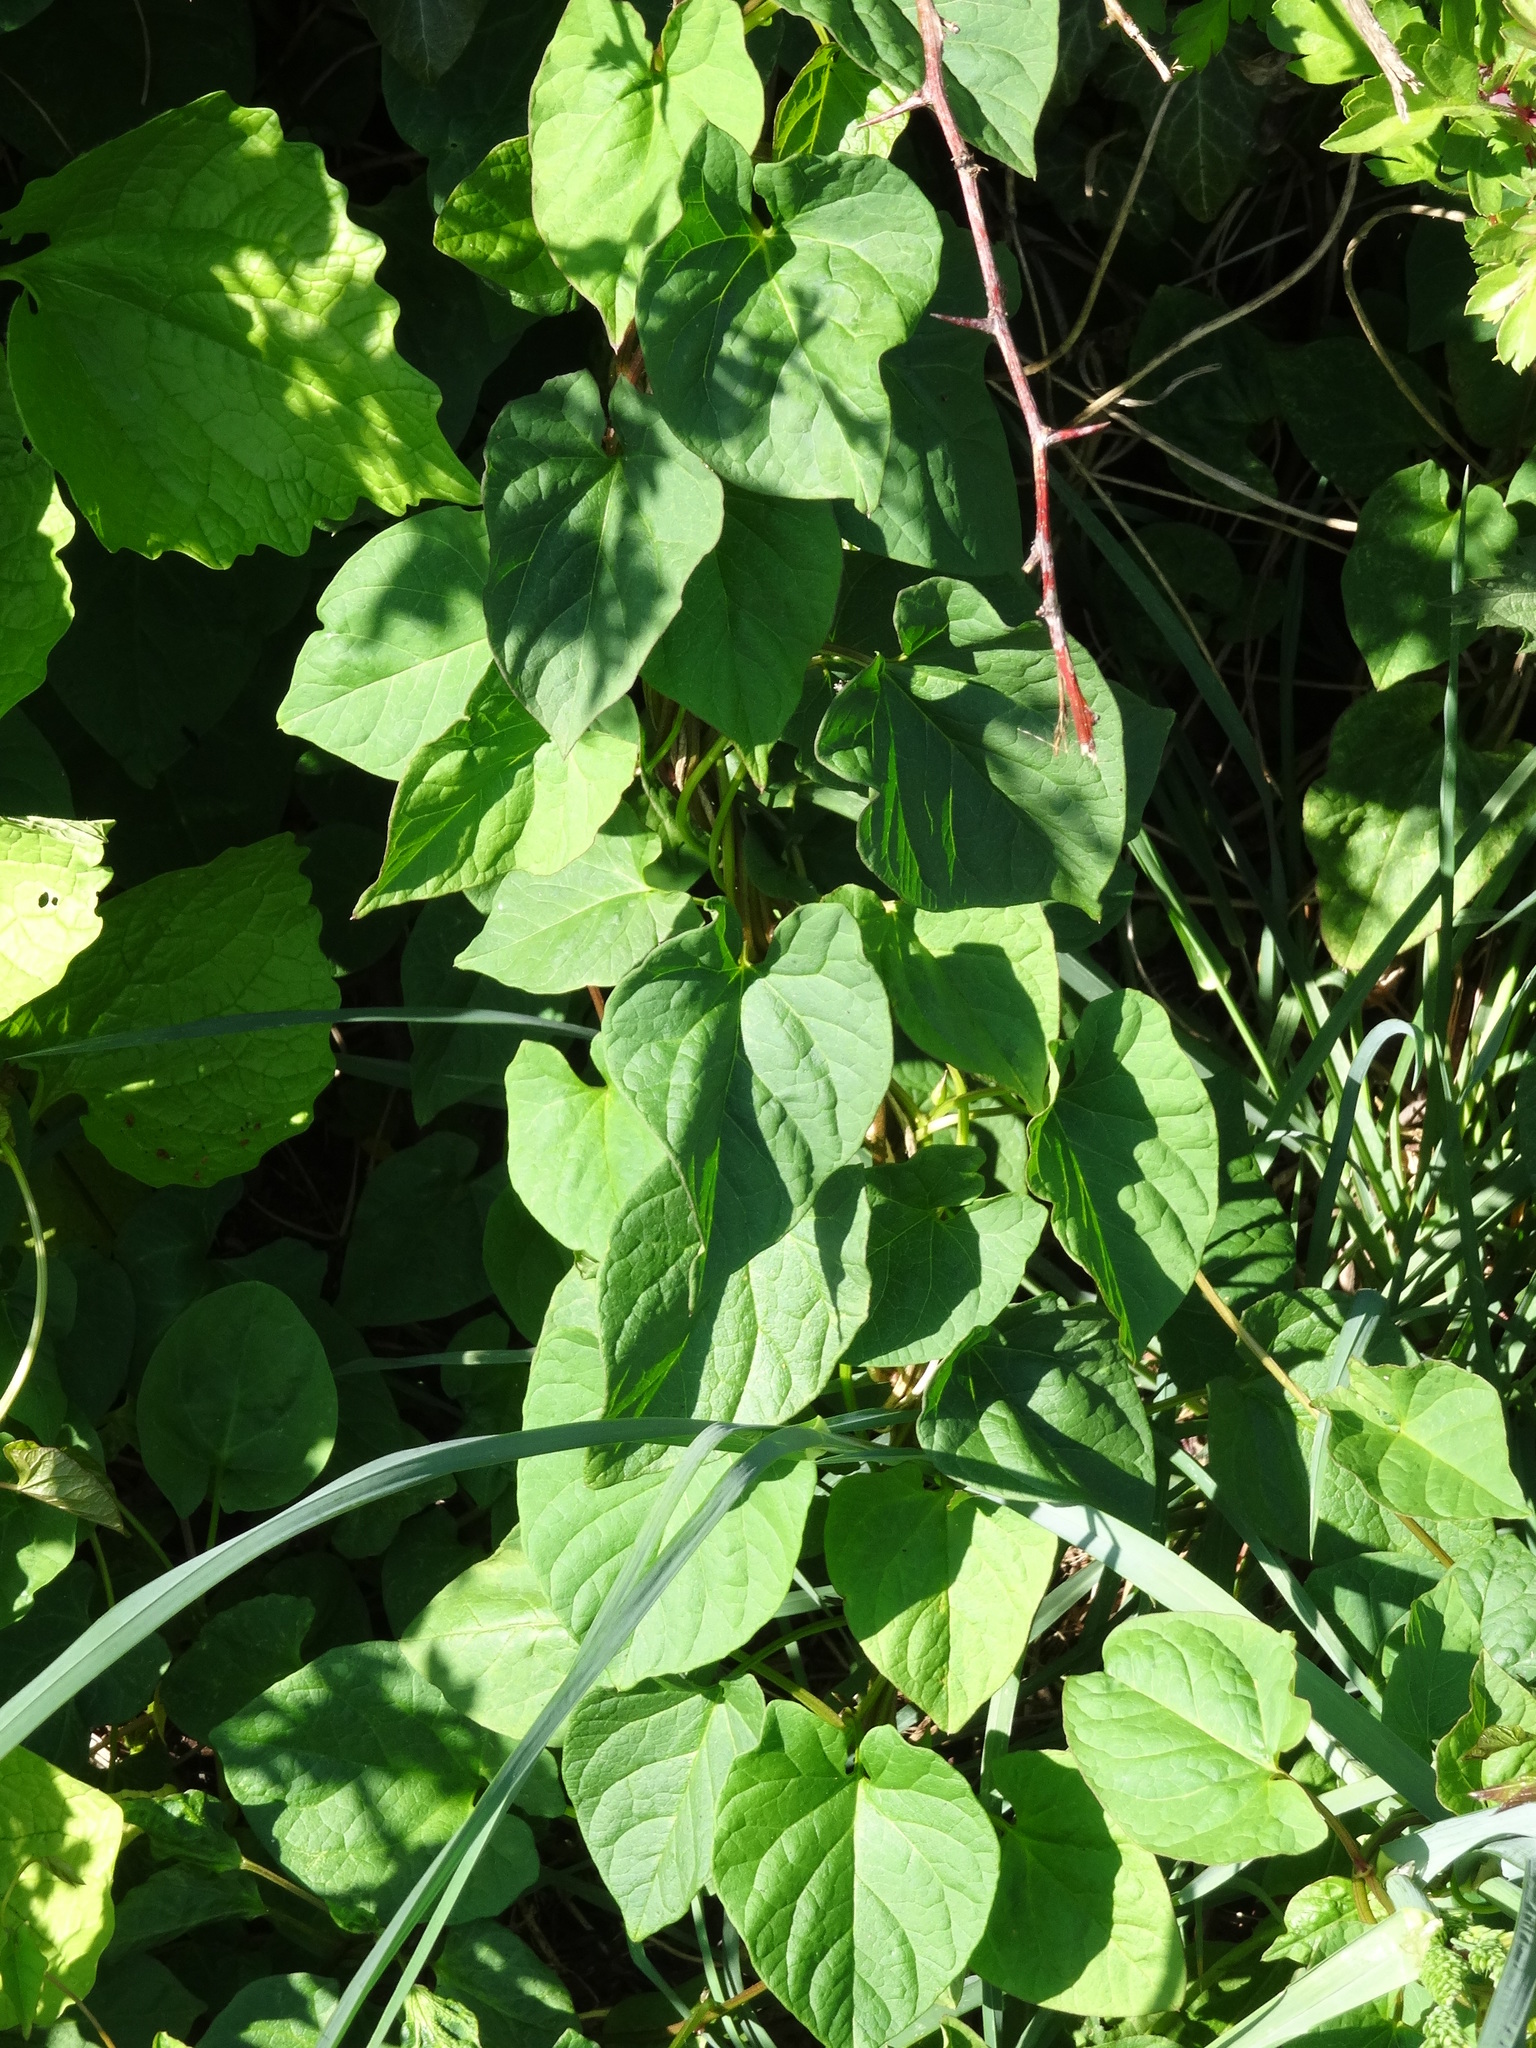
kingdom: Plantae
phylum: Tracheophyta
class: Magnoliopsida
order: Solanales
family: Convolvulaceae
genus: Calystegia
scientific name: Calystegia silvatica
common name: Large bindweed
